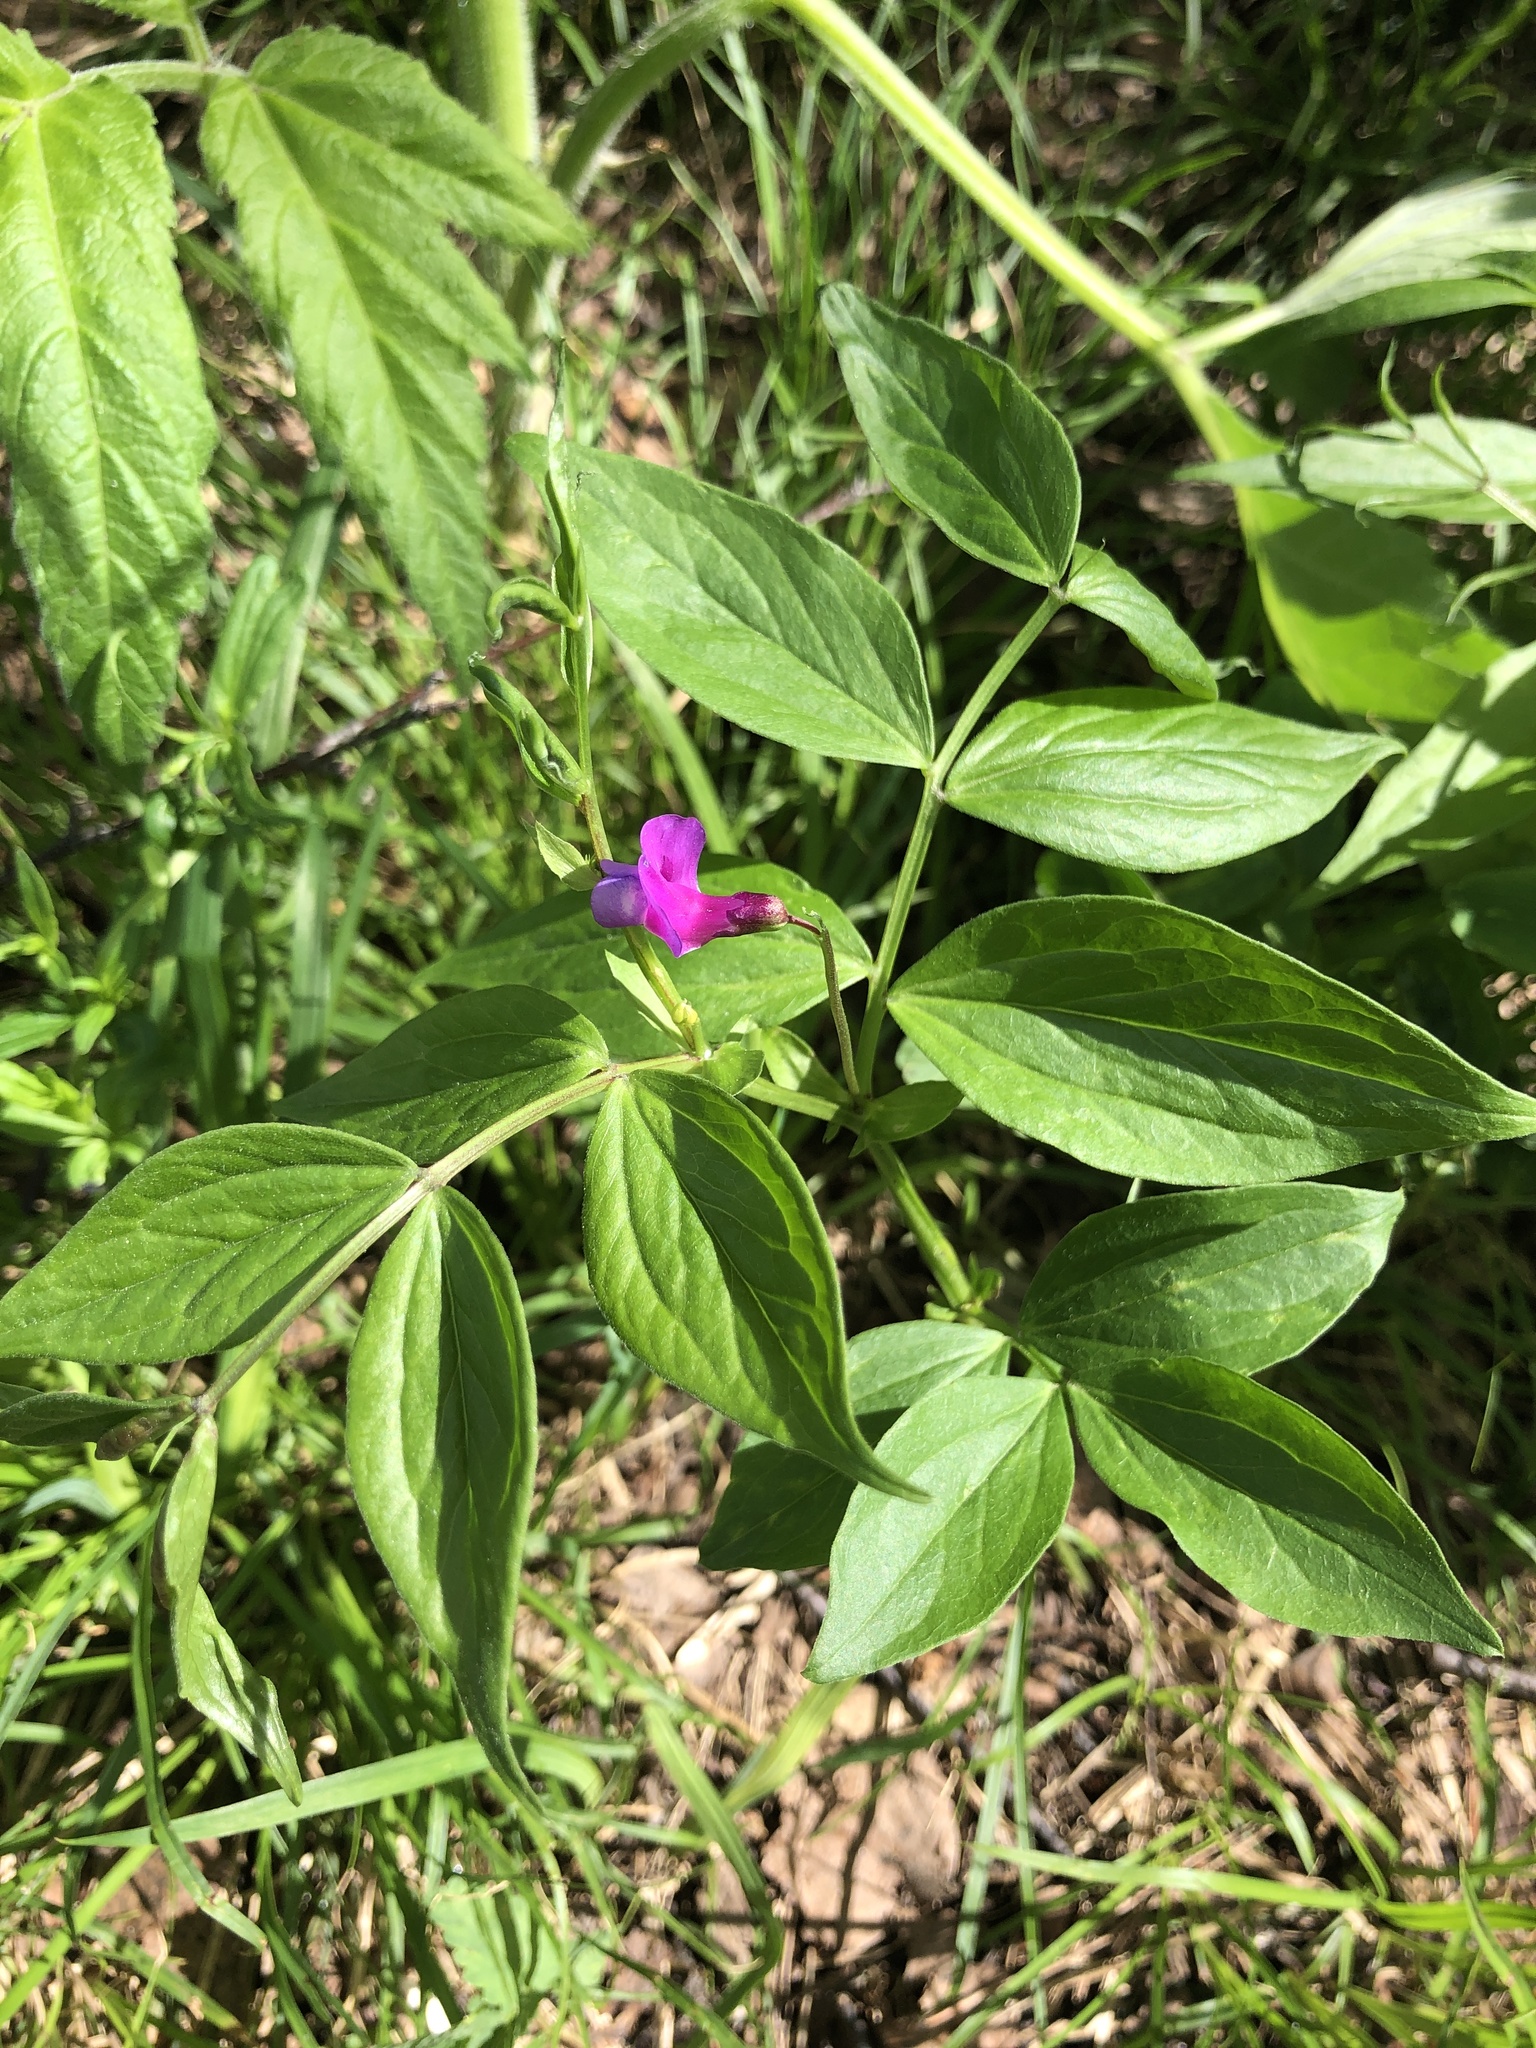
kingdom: Plantae
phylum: Tracheophyta
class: Magnoliopsida
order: Fabales
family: Fabaceae
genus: Lathyrus
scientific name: Lathyrus vernus
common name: Spring pea
